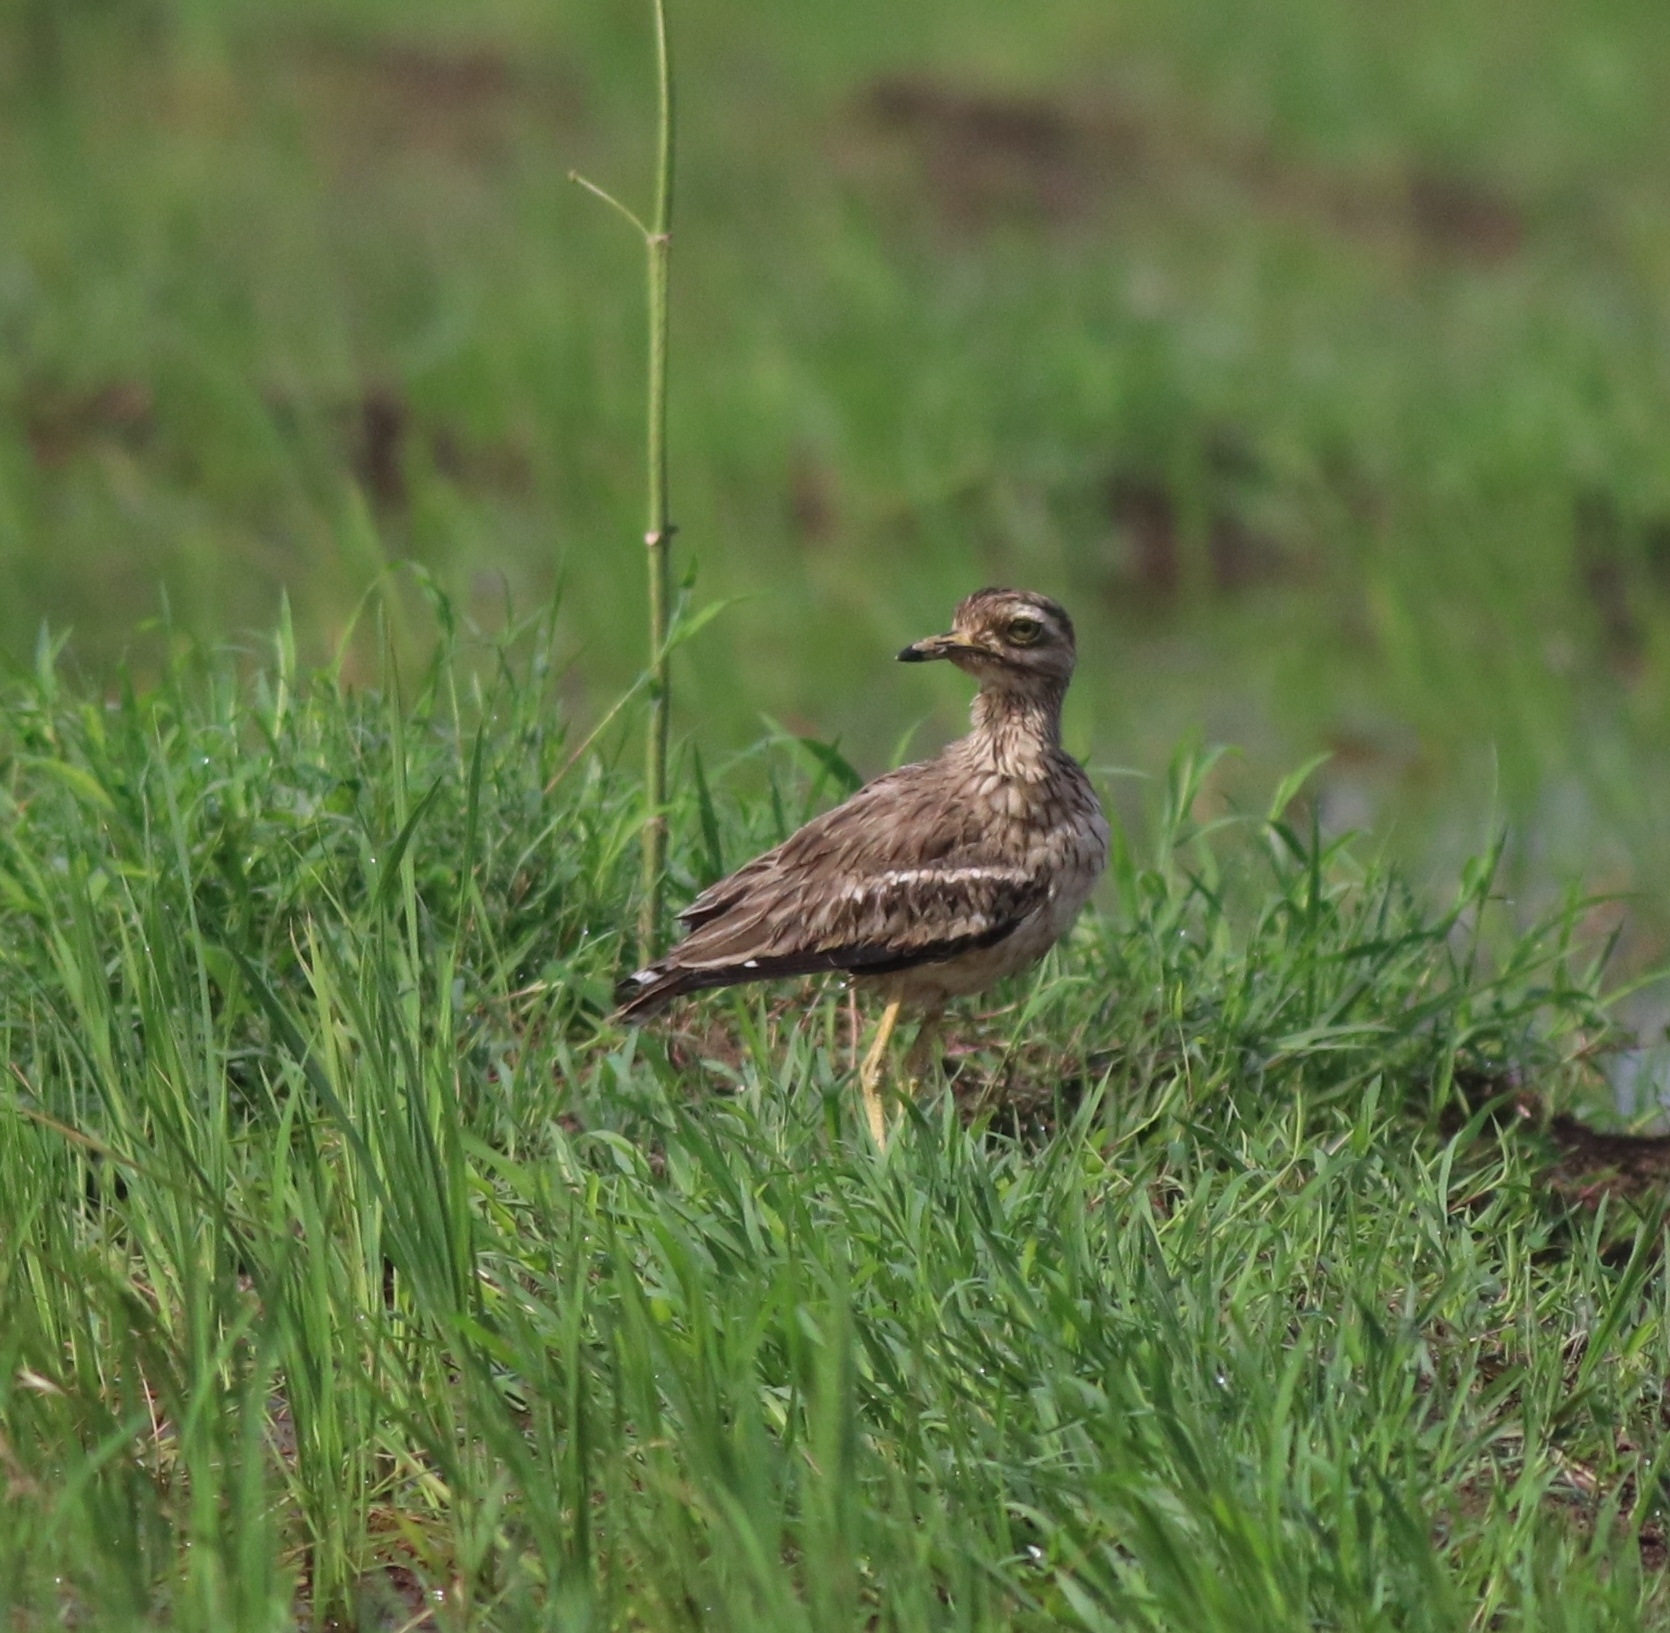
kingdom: Animalia
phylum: Chordata
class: Aves
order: Charadriiformes
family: Burhinidae
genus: Burhinus
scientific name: Burhinus indicus
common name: Indian thick-knee
